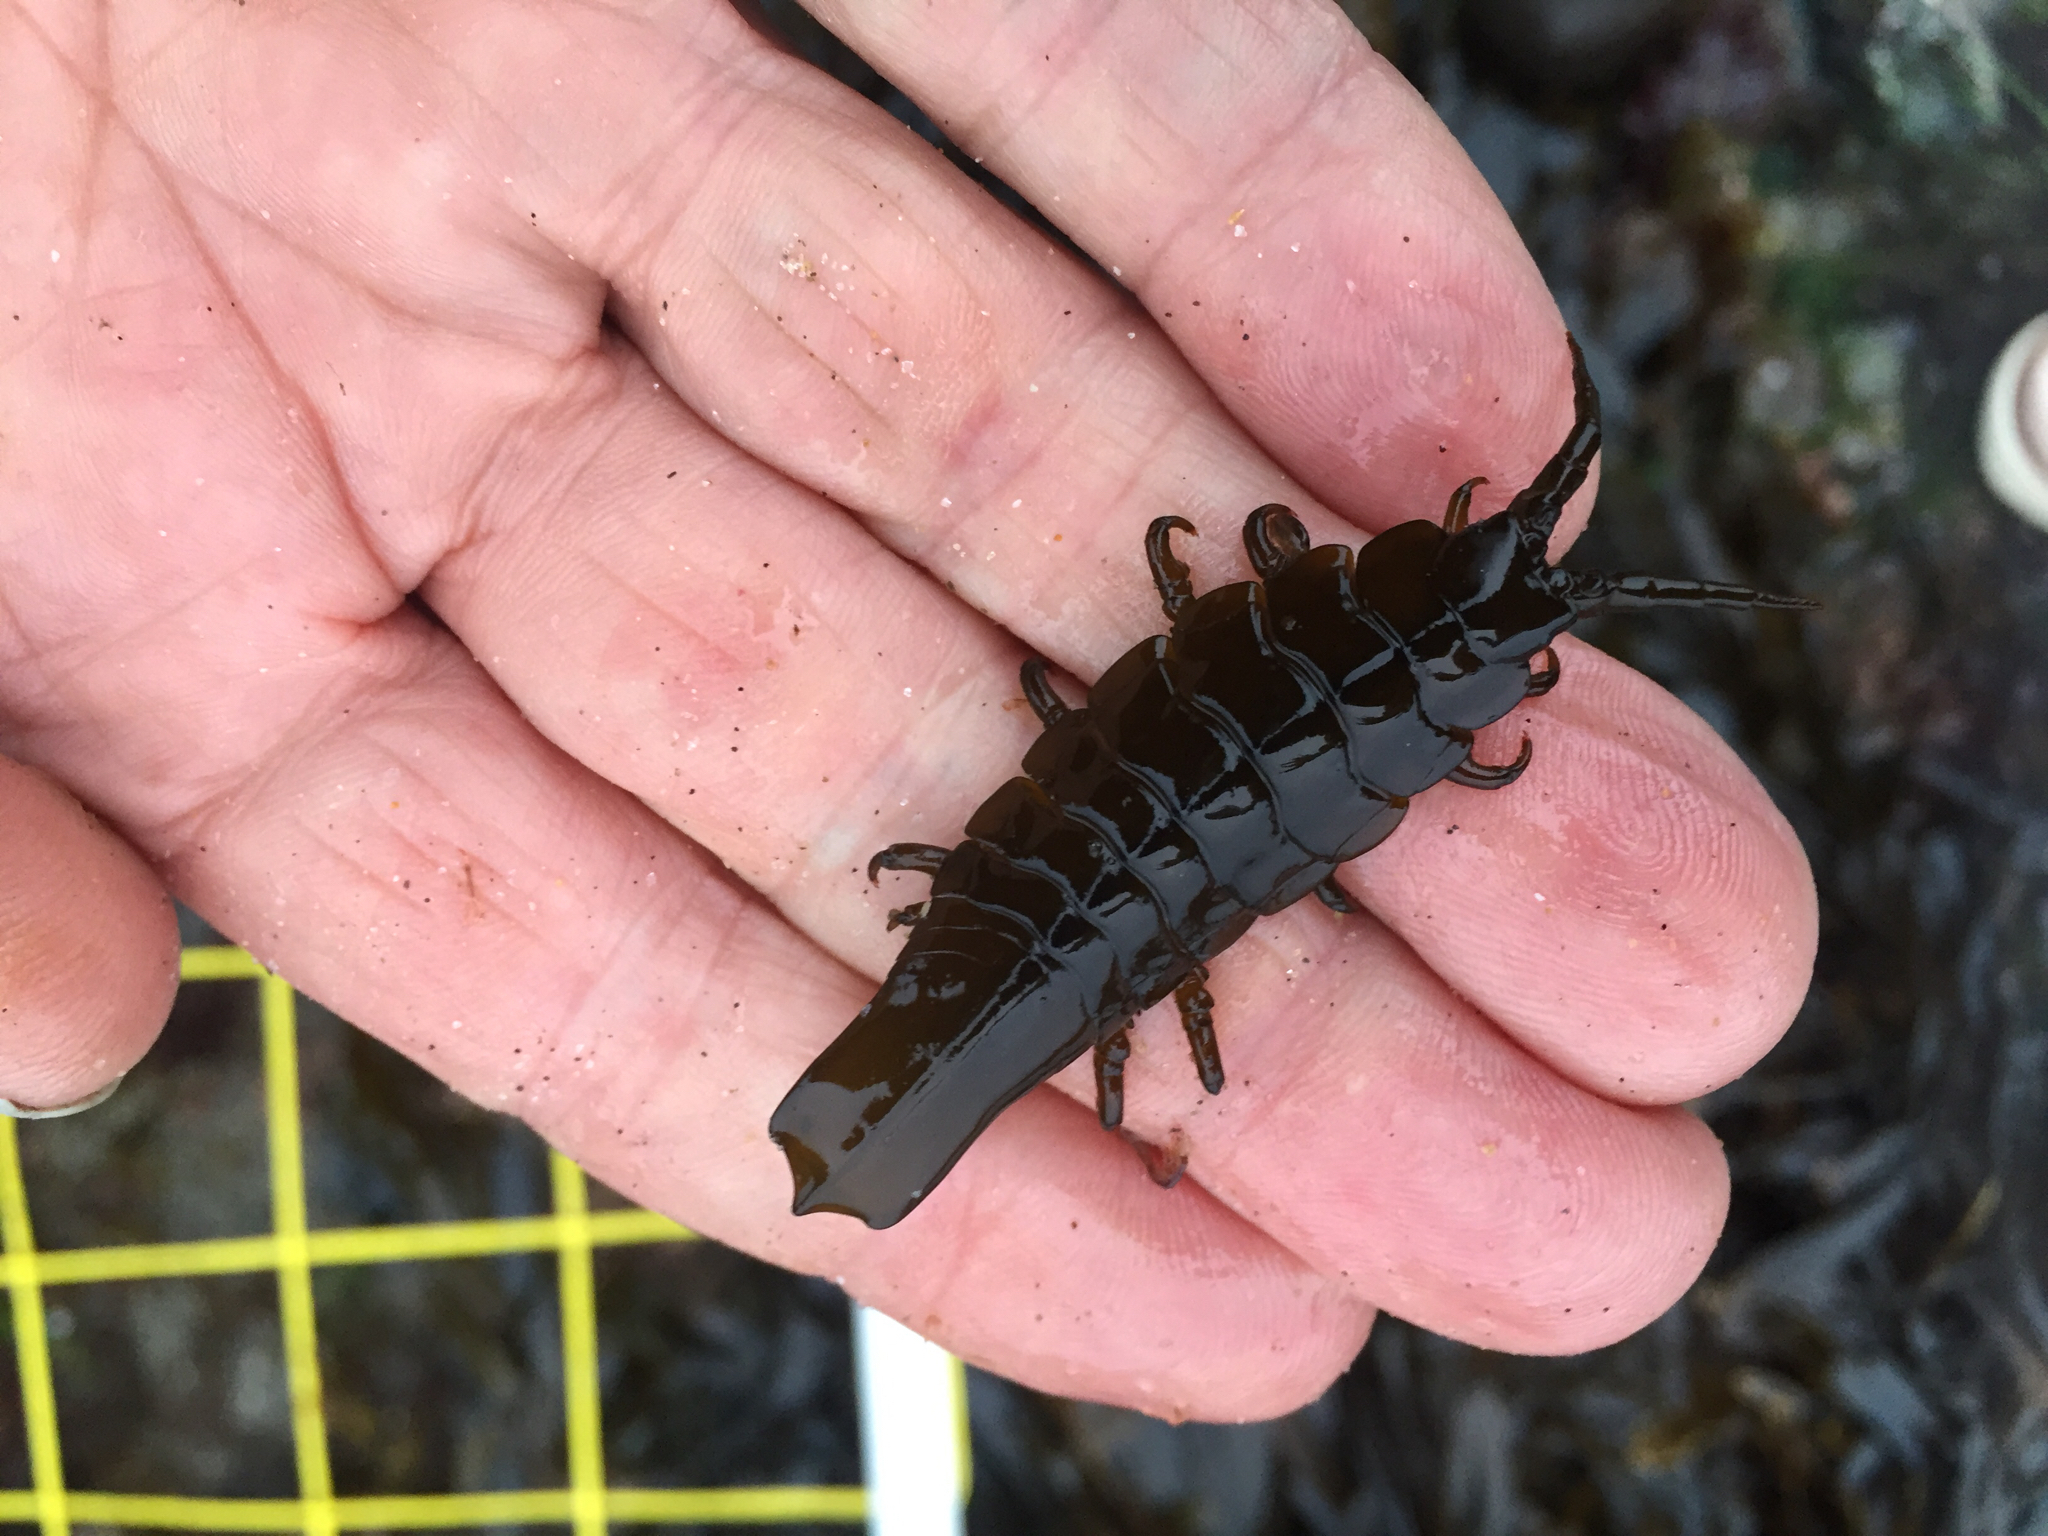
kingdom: Animalia
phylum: Arthropoda
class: Malacostraca
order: Isopoda
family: Idoteidae
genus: Pentidotea
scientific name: Pentidotea stenops
